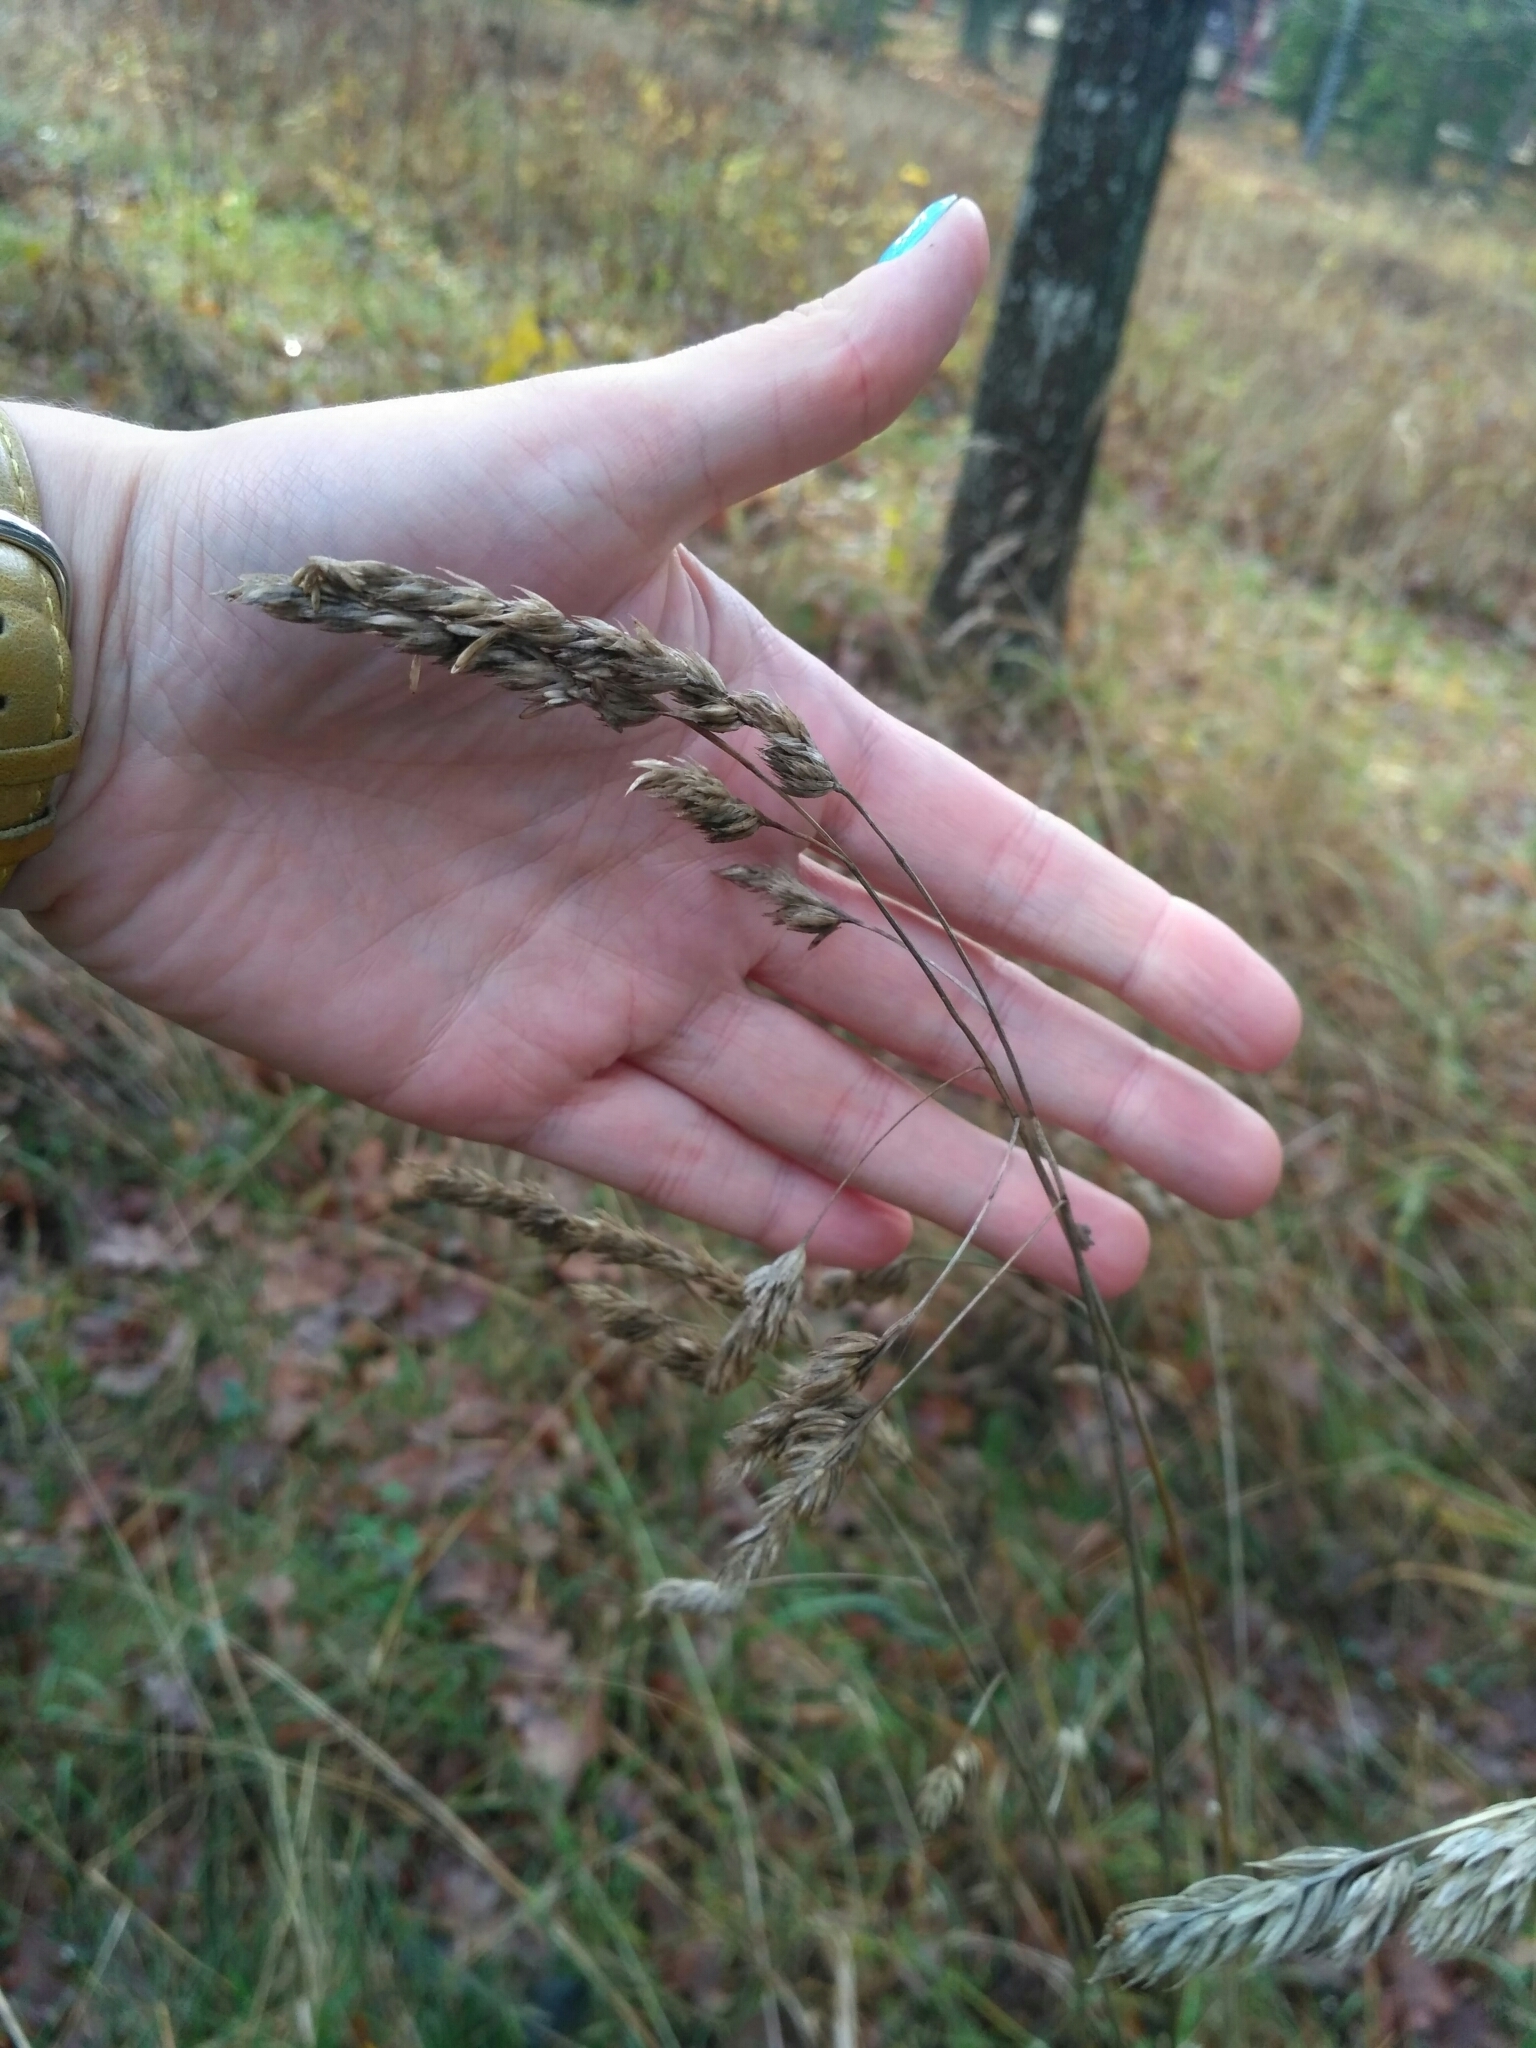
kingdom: Plantae
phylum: Tracheophyta
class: Liliopsida
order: Poales
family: Poaceae
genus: Dactylis
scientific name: Dactylis glomerata
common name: Orchardgrass
